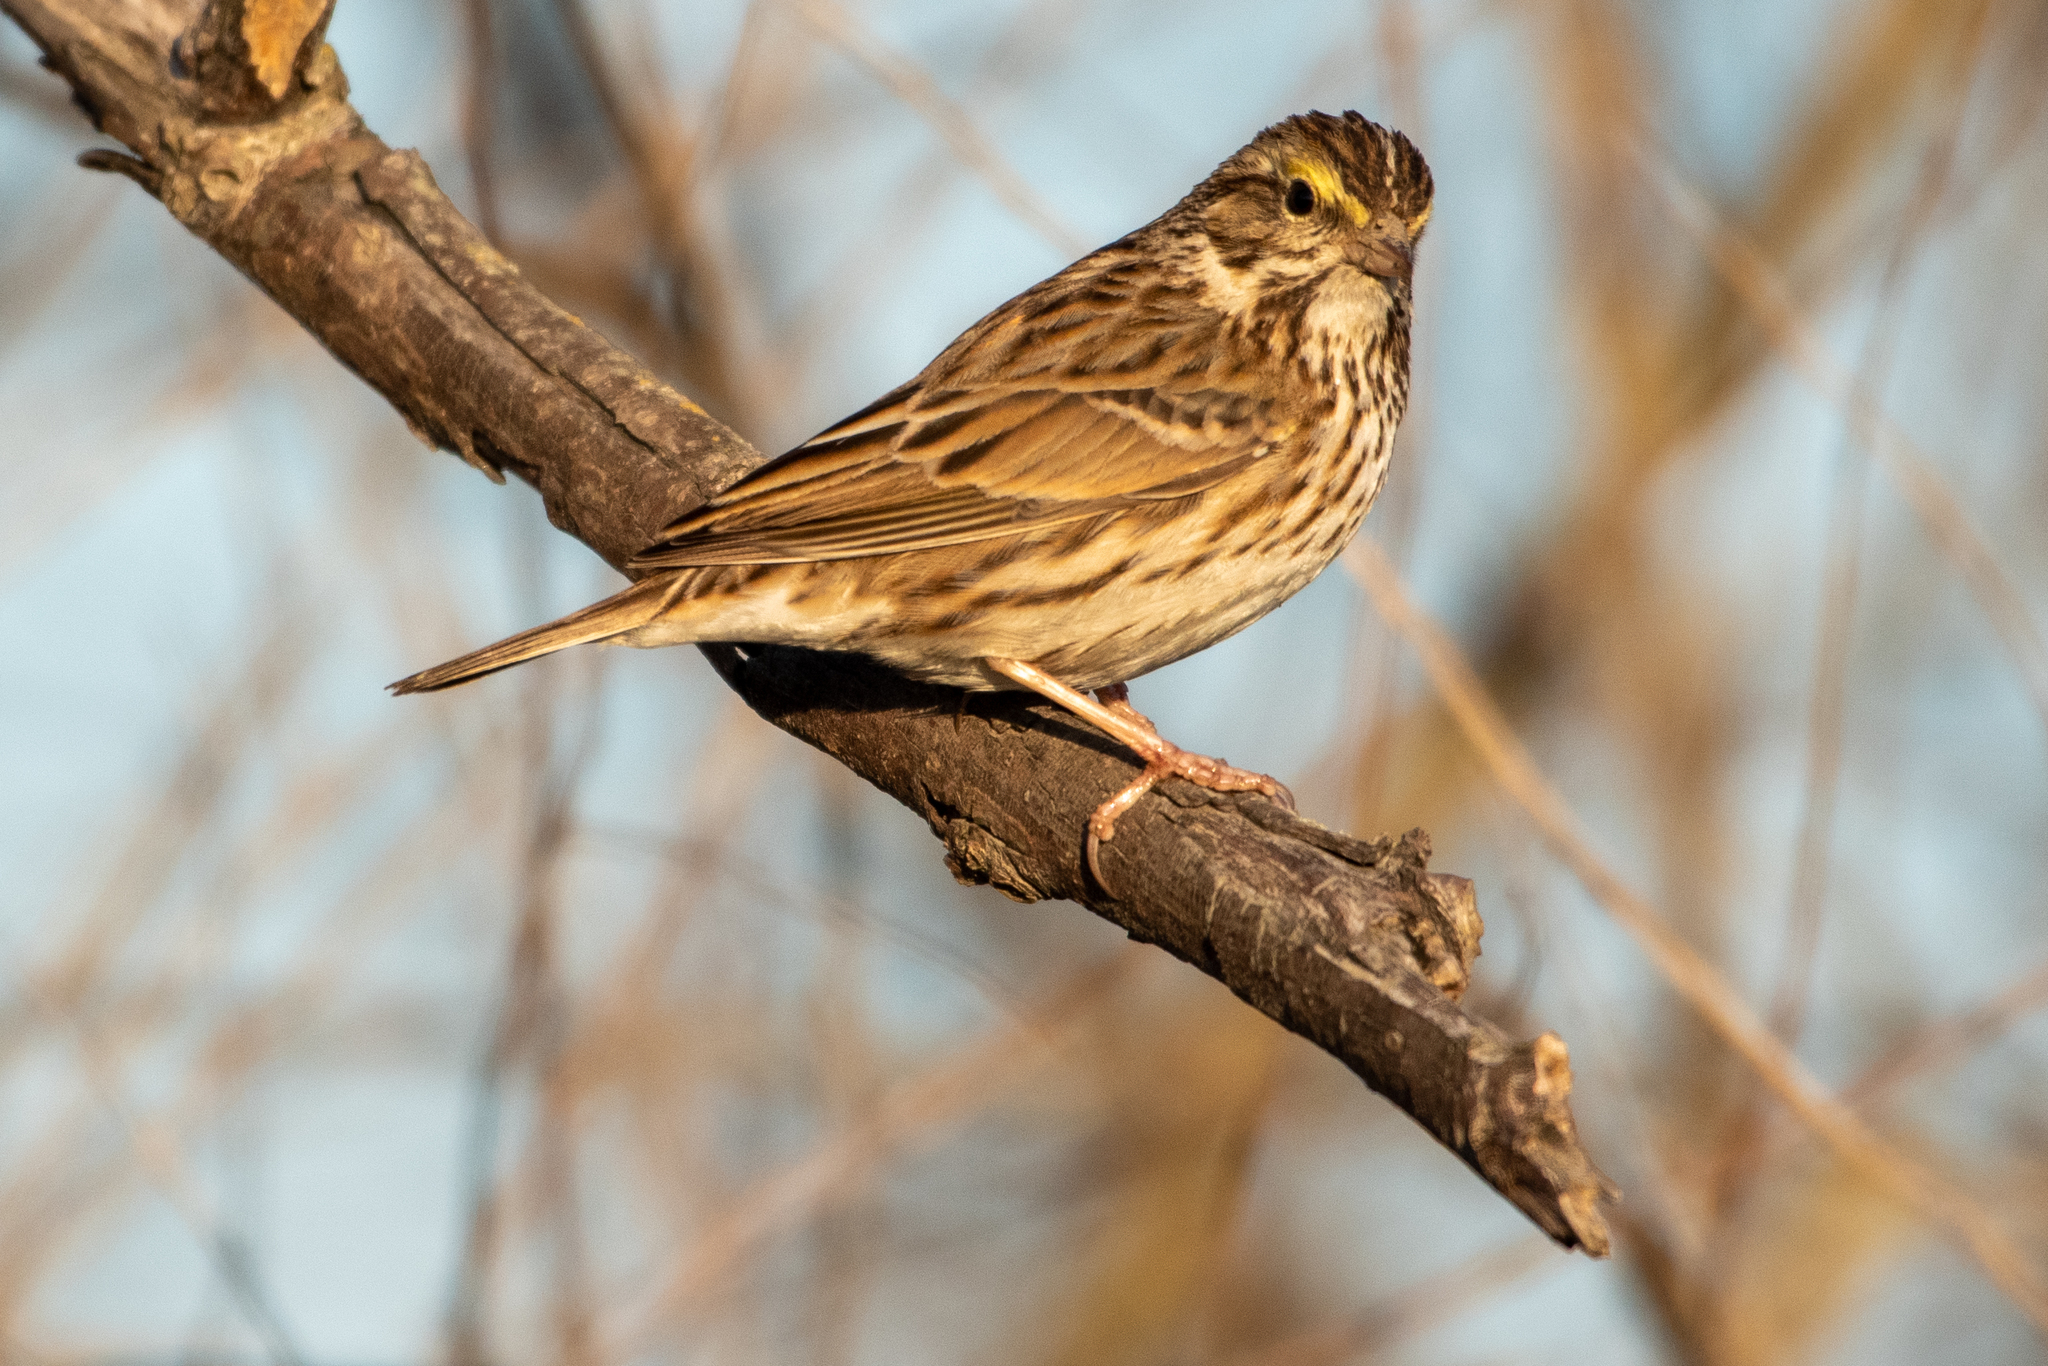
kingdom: Animalia
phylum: Chordata
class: Aves
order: Passeriformes
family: Passerellidae
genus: Passerculus
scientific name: Passerculus sandwichensis
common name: Savannah sparrow
